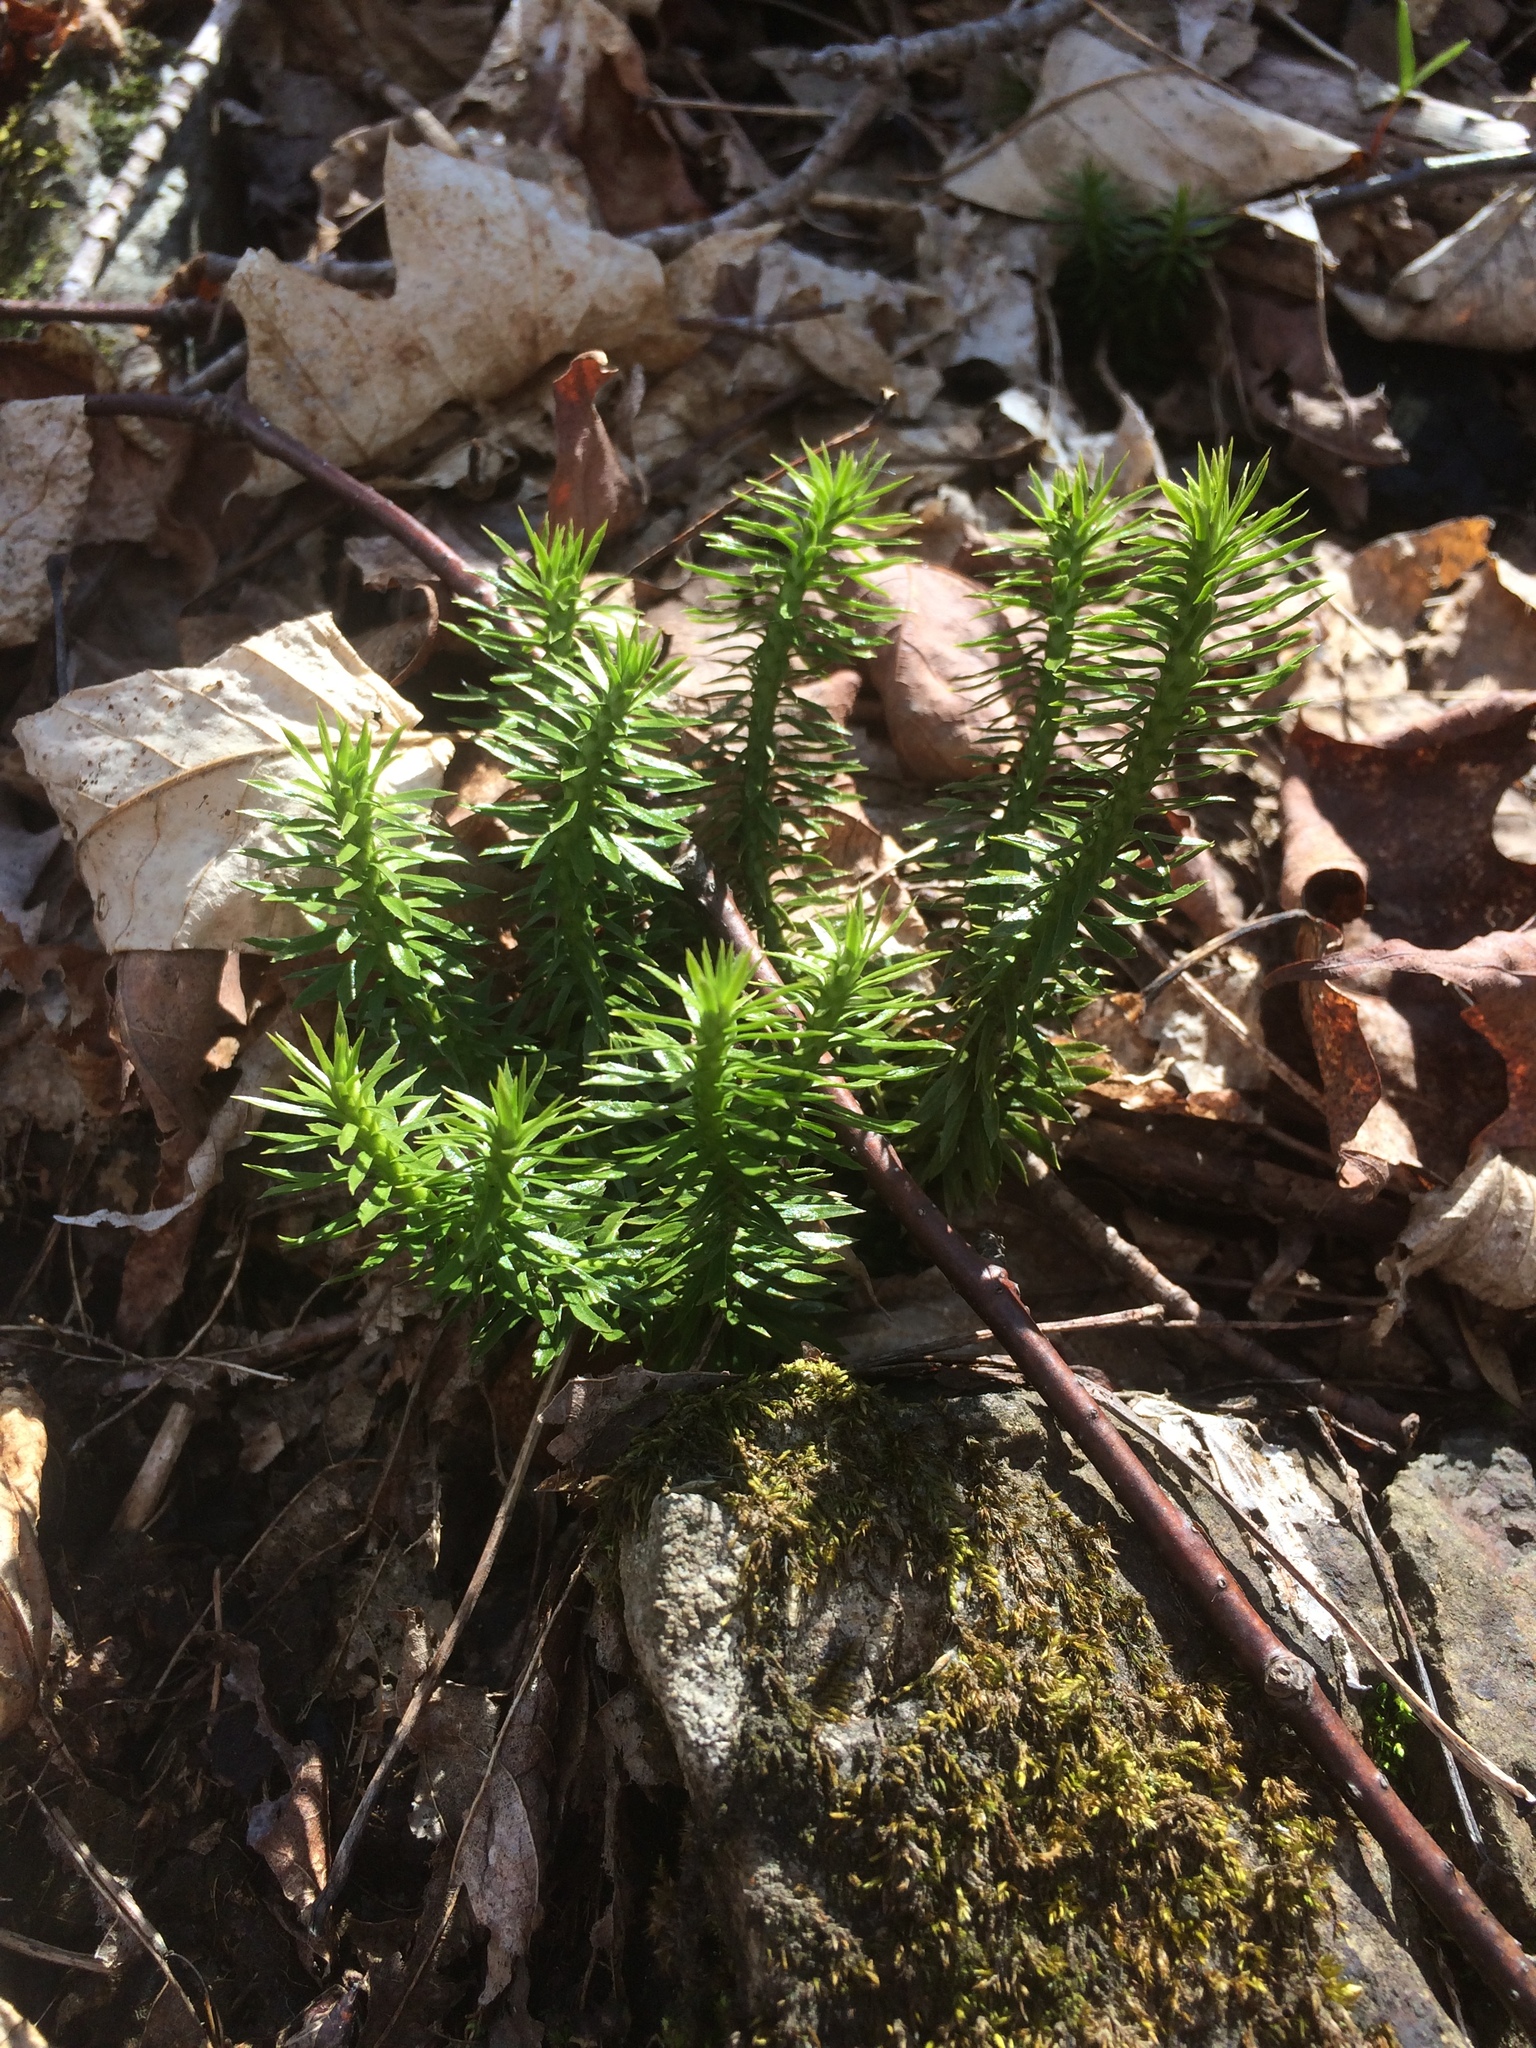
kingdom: Plantae
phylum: Tracheophyta
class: Lycopodiopsida
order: Lycopodiales
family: Lycopodiaceae
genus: Huperzia
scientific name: Huperzia lucidula
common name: Shining clubmoss
